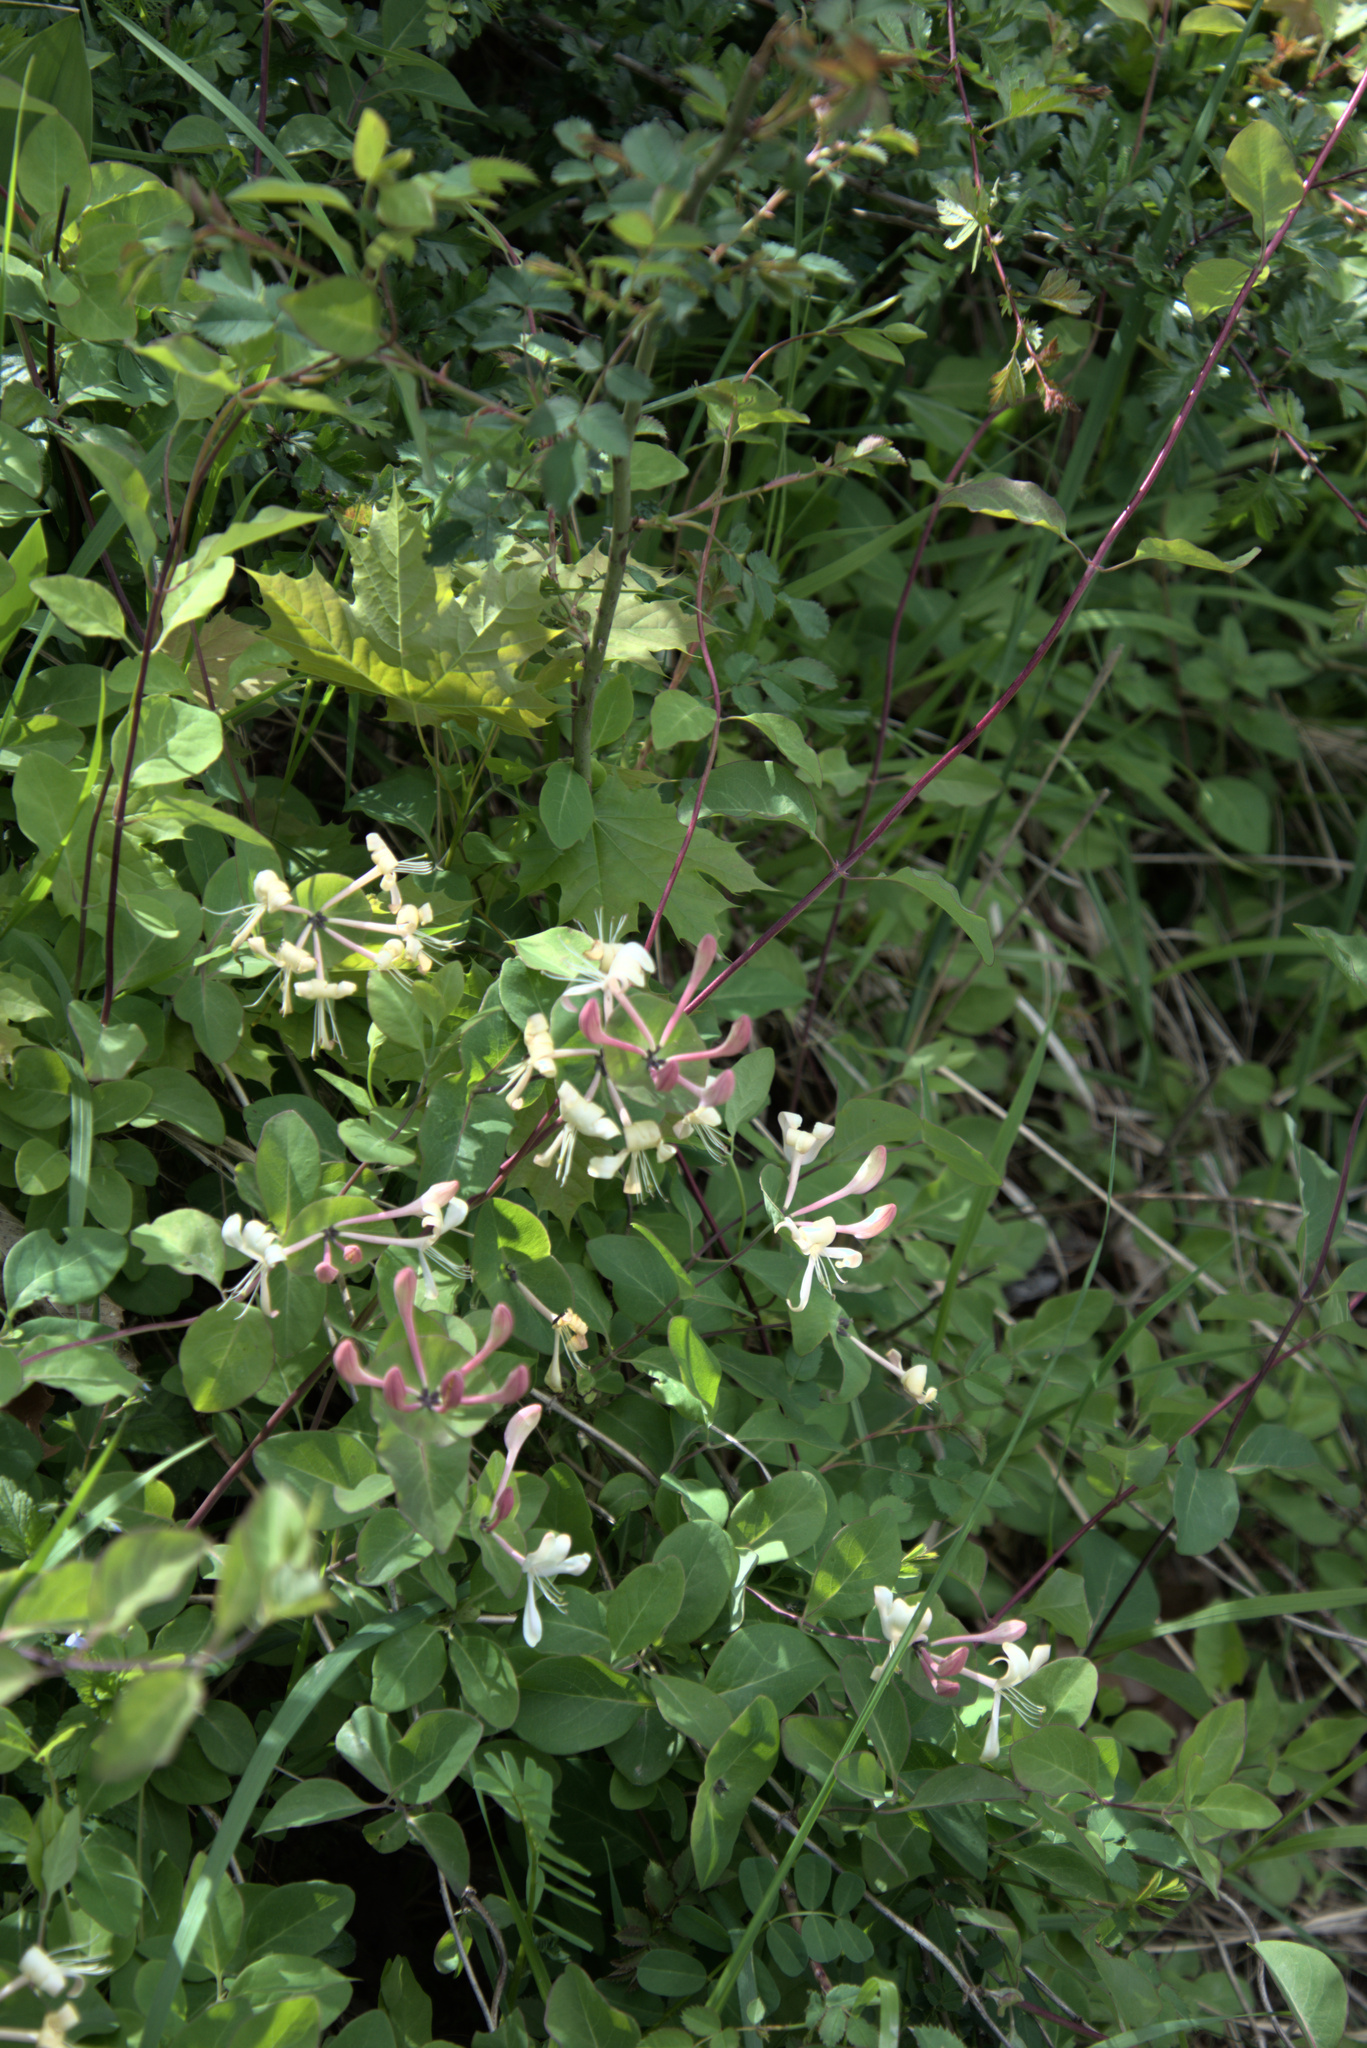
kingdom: Plantae
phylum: Tracheophyta
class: Magnoliopsida
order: Dipsacales
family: Caprifoliaceae
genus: Lonicera
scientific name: Lonicera caprifolium
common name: Perfoliate honeysuckle
